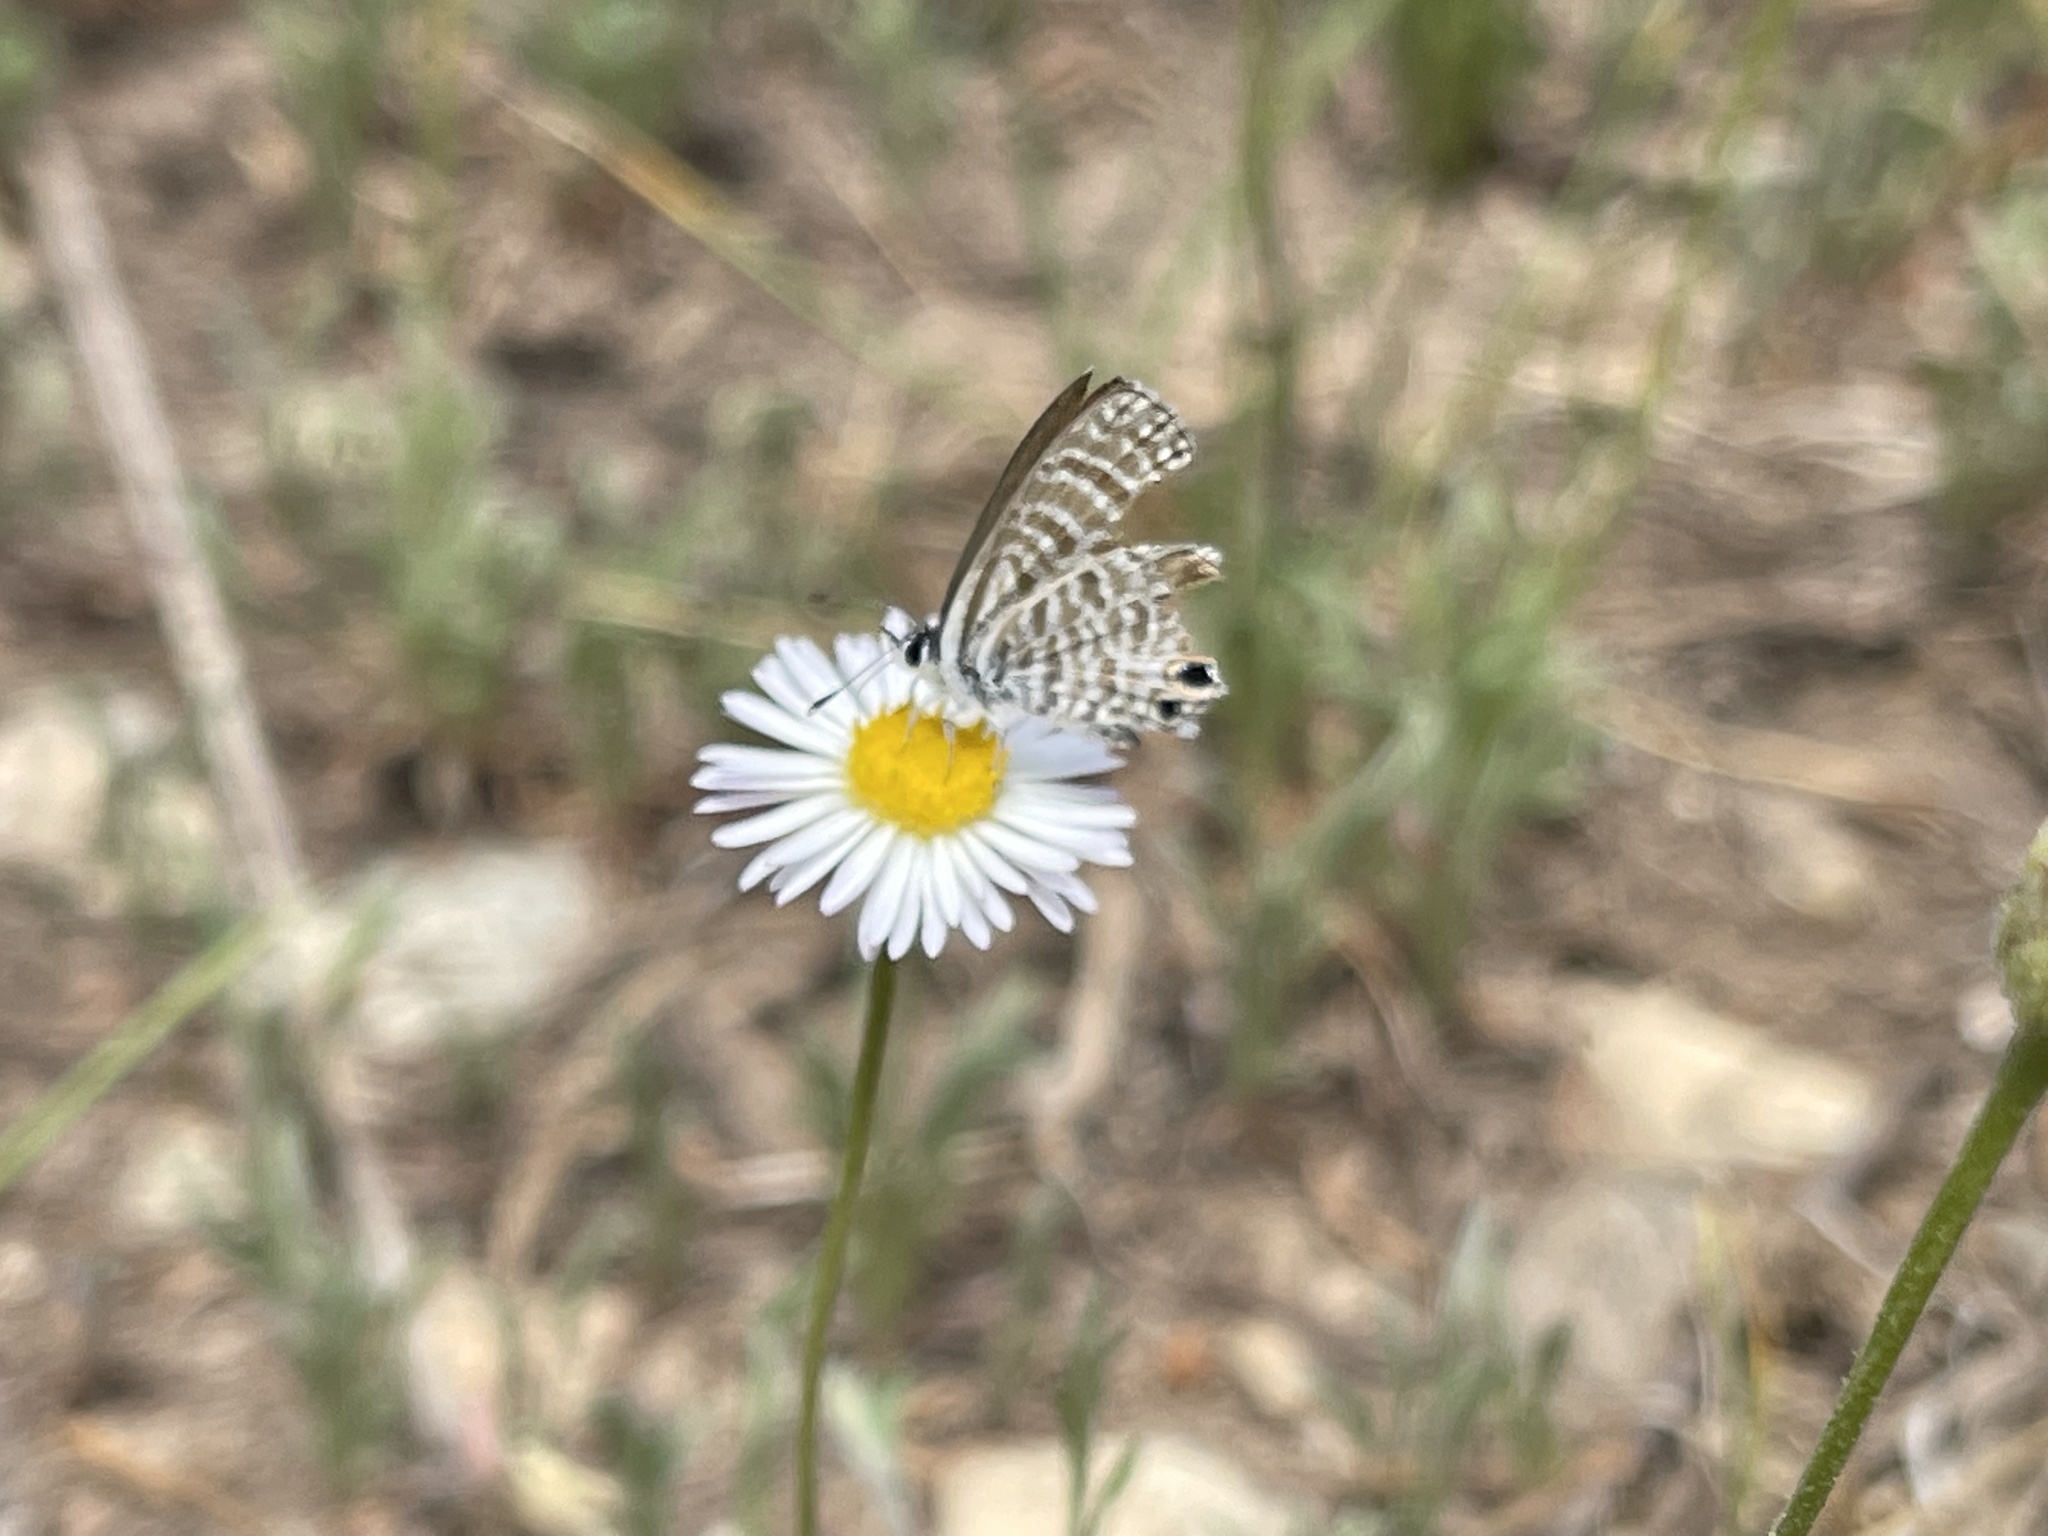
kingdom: Animalia
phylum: Arthropoda
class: Insecta
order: Lepidoptera
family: Lycaenidae
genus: Leptotes
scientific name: Leptotes marina
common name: Marine blue
